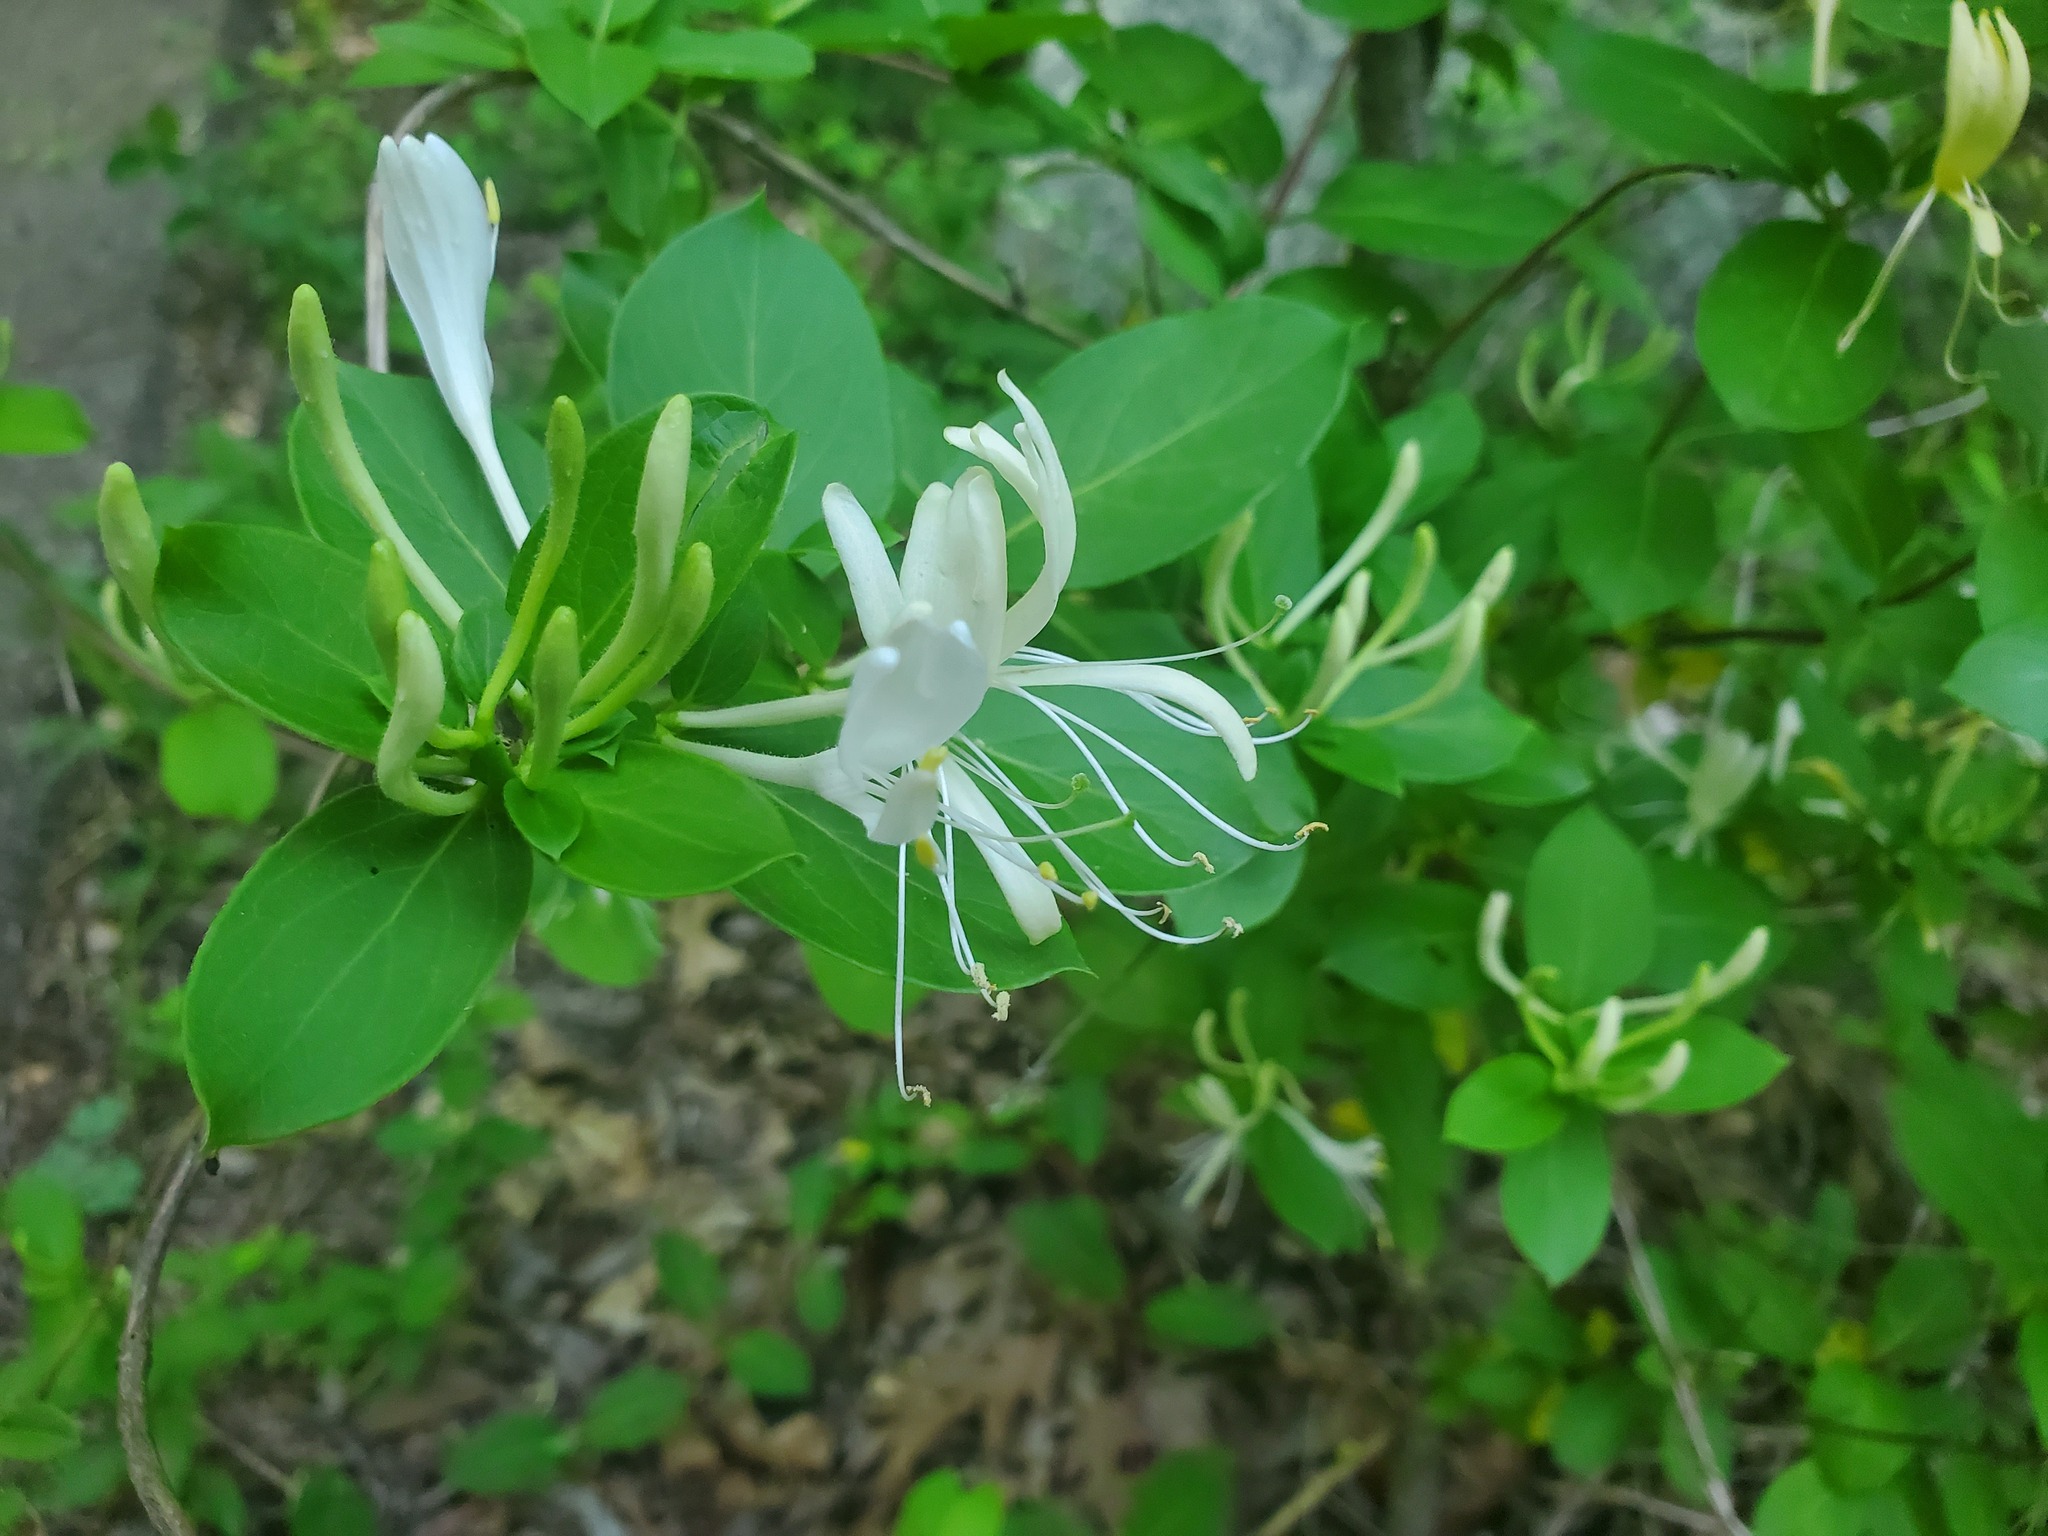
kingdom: Plantae
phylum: Tracheophyta
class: Magnoliopsida
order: Dipsacales
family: Caprifoliaceae
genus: Lonicera
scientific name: Lonicera japonica
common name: Japanese honeysuckle
